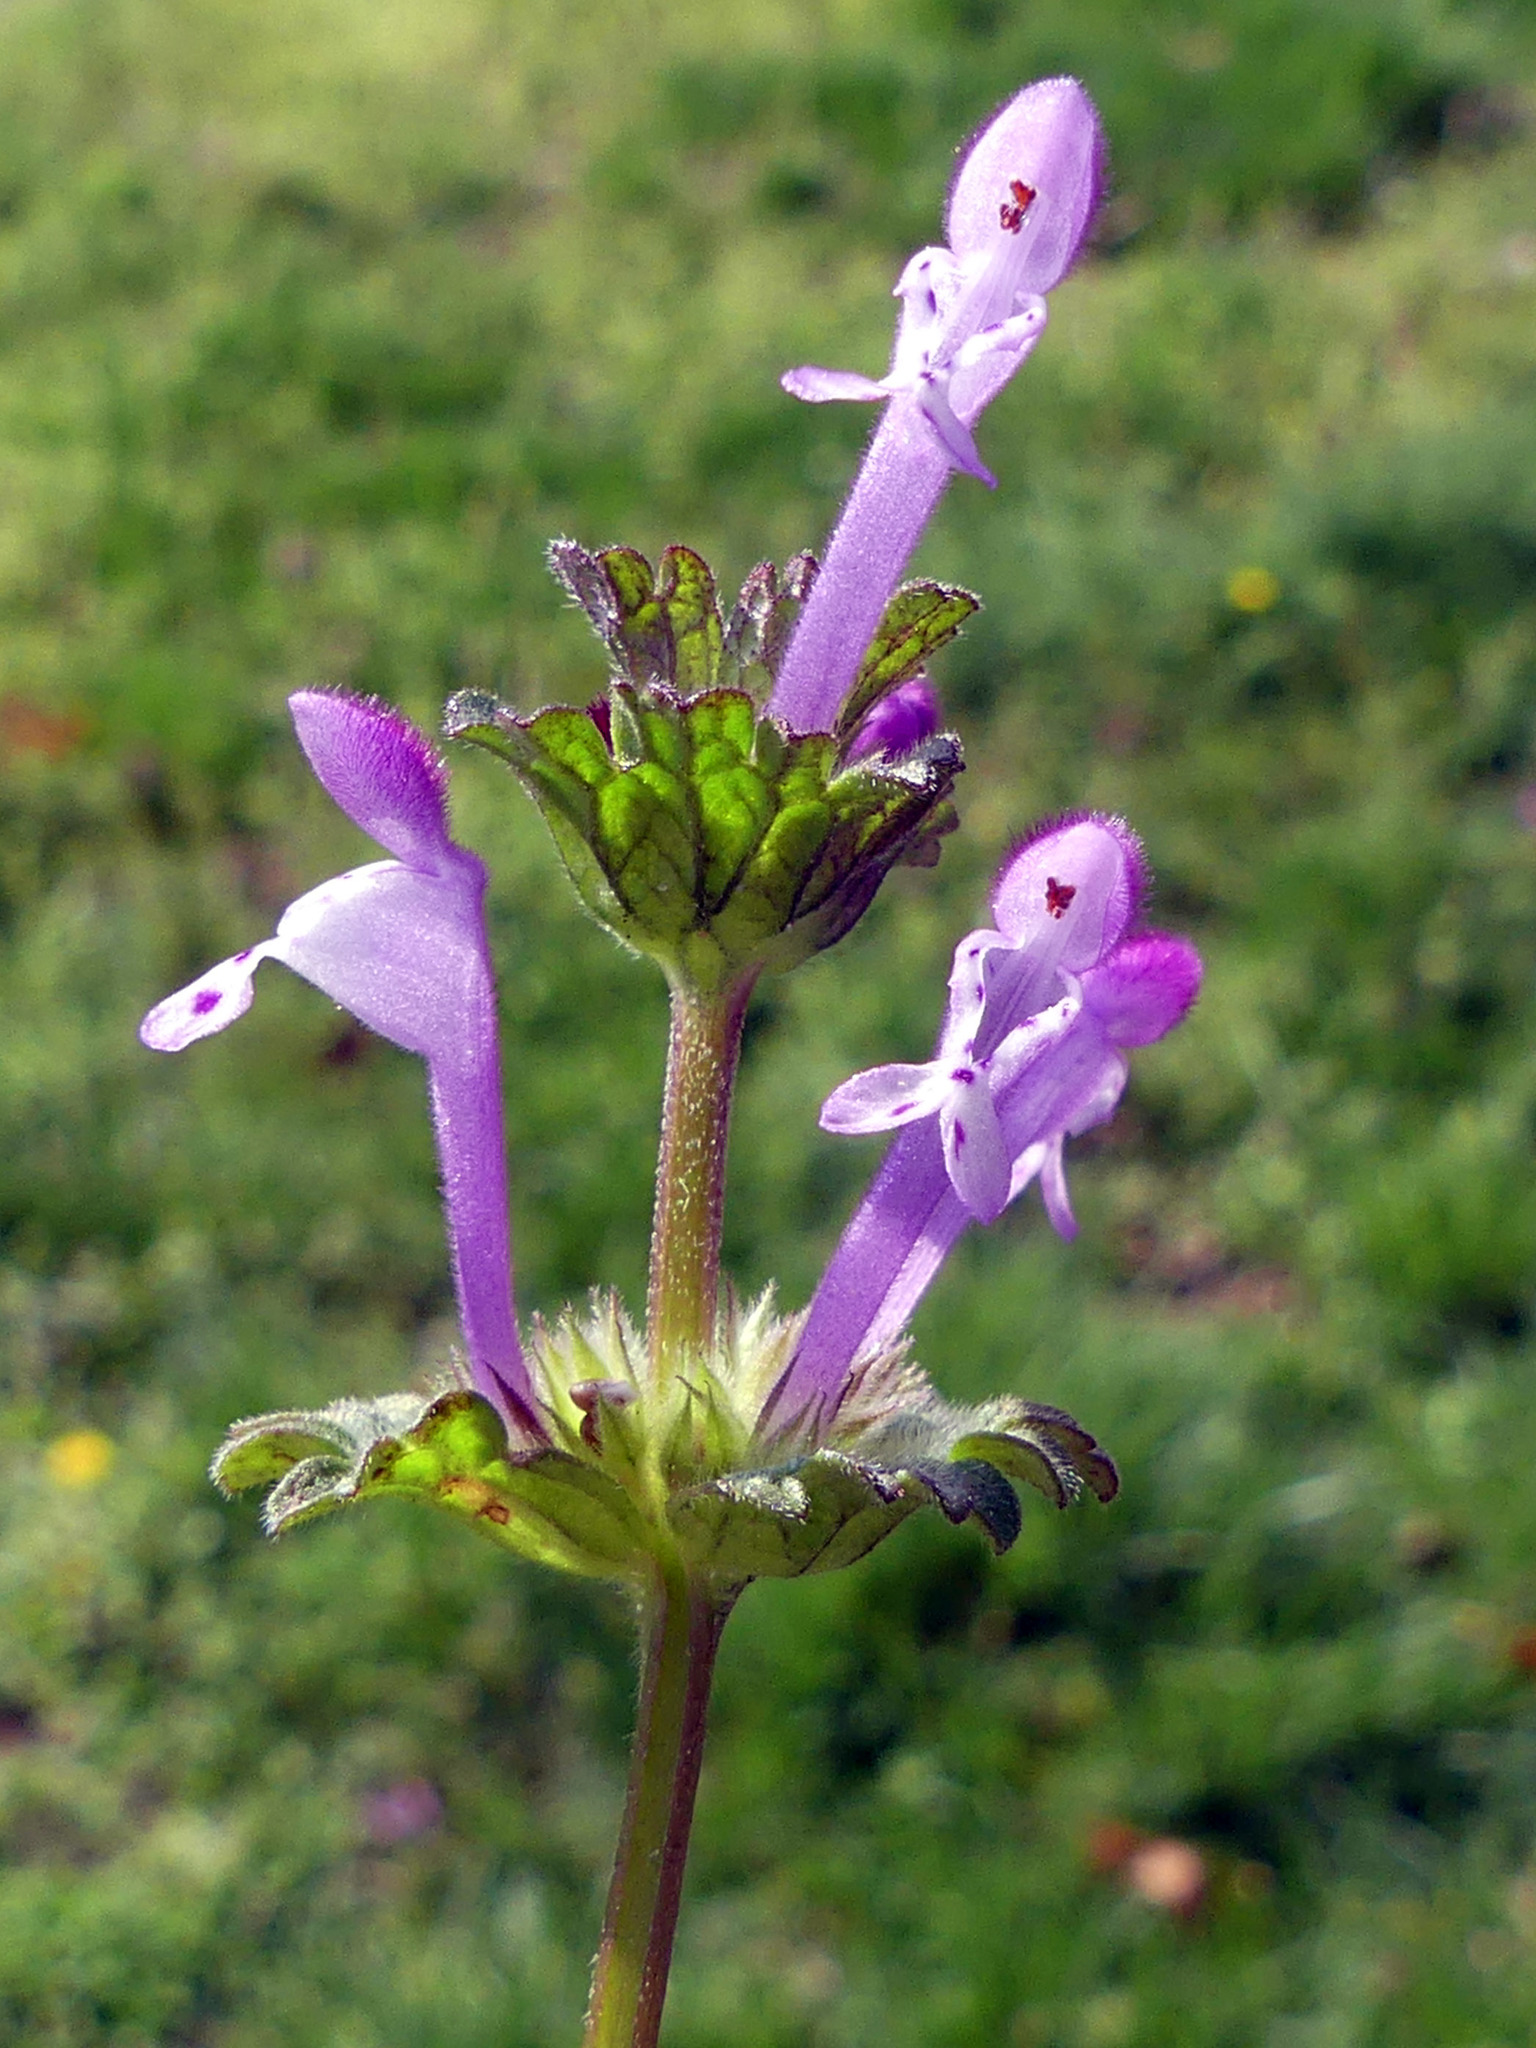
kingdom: Plantae
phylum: Tracheophyta
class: Magnoliopsida
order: Lamiales
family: Lamiaceae
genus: Lamium
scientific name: Lamium amplexicaule
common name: Henbit dead-nettle
